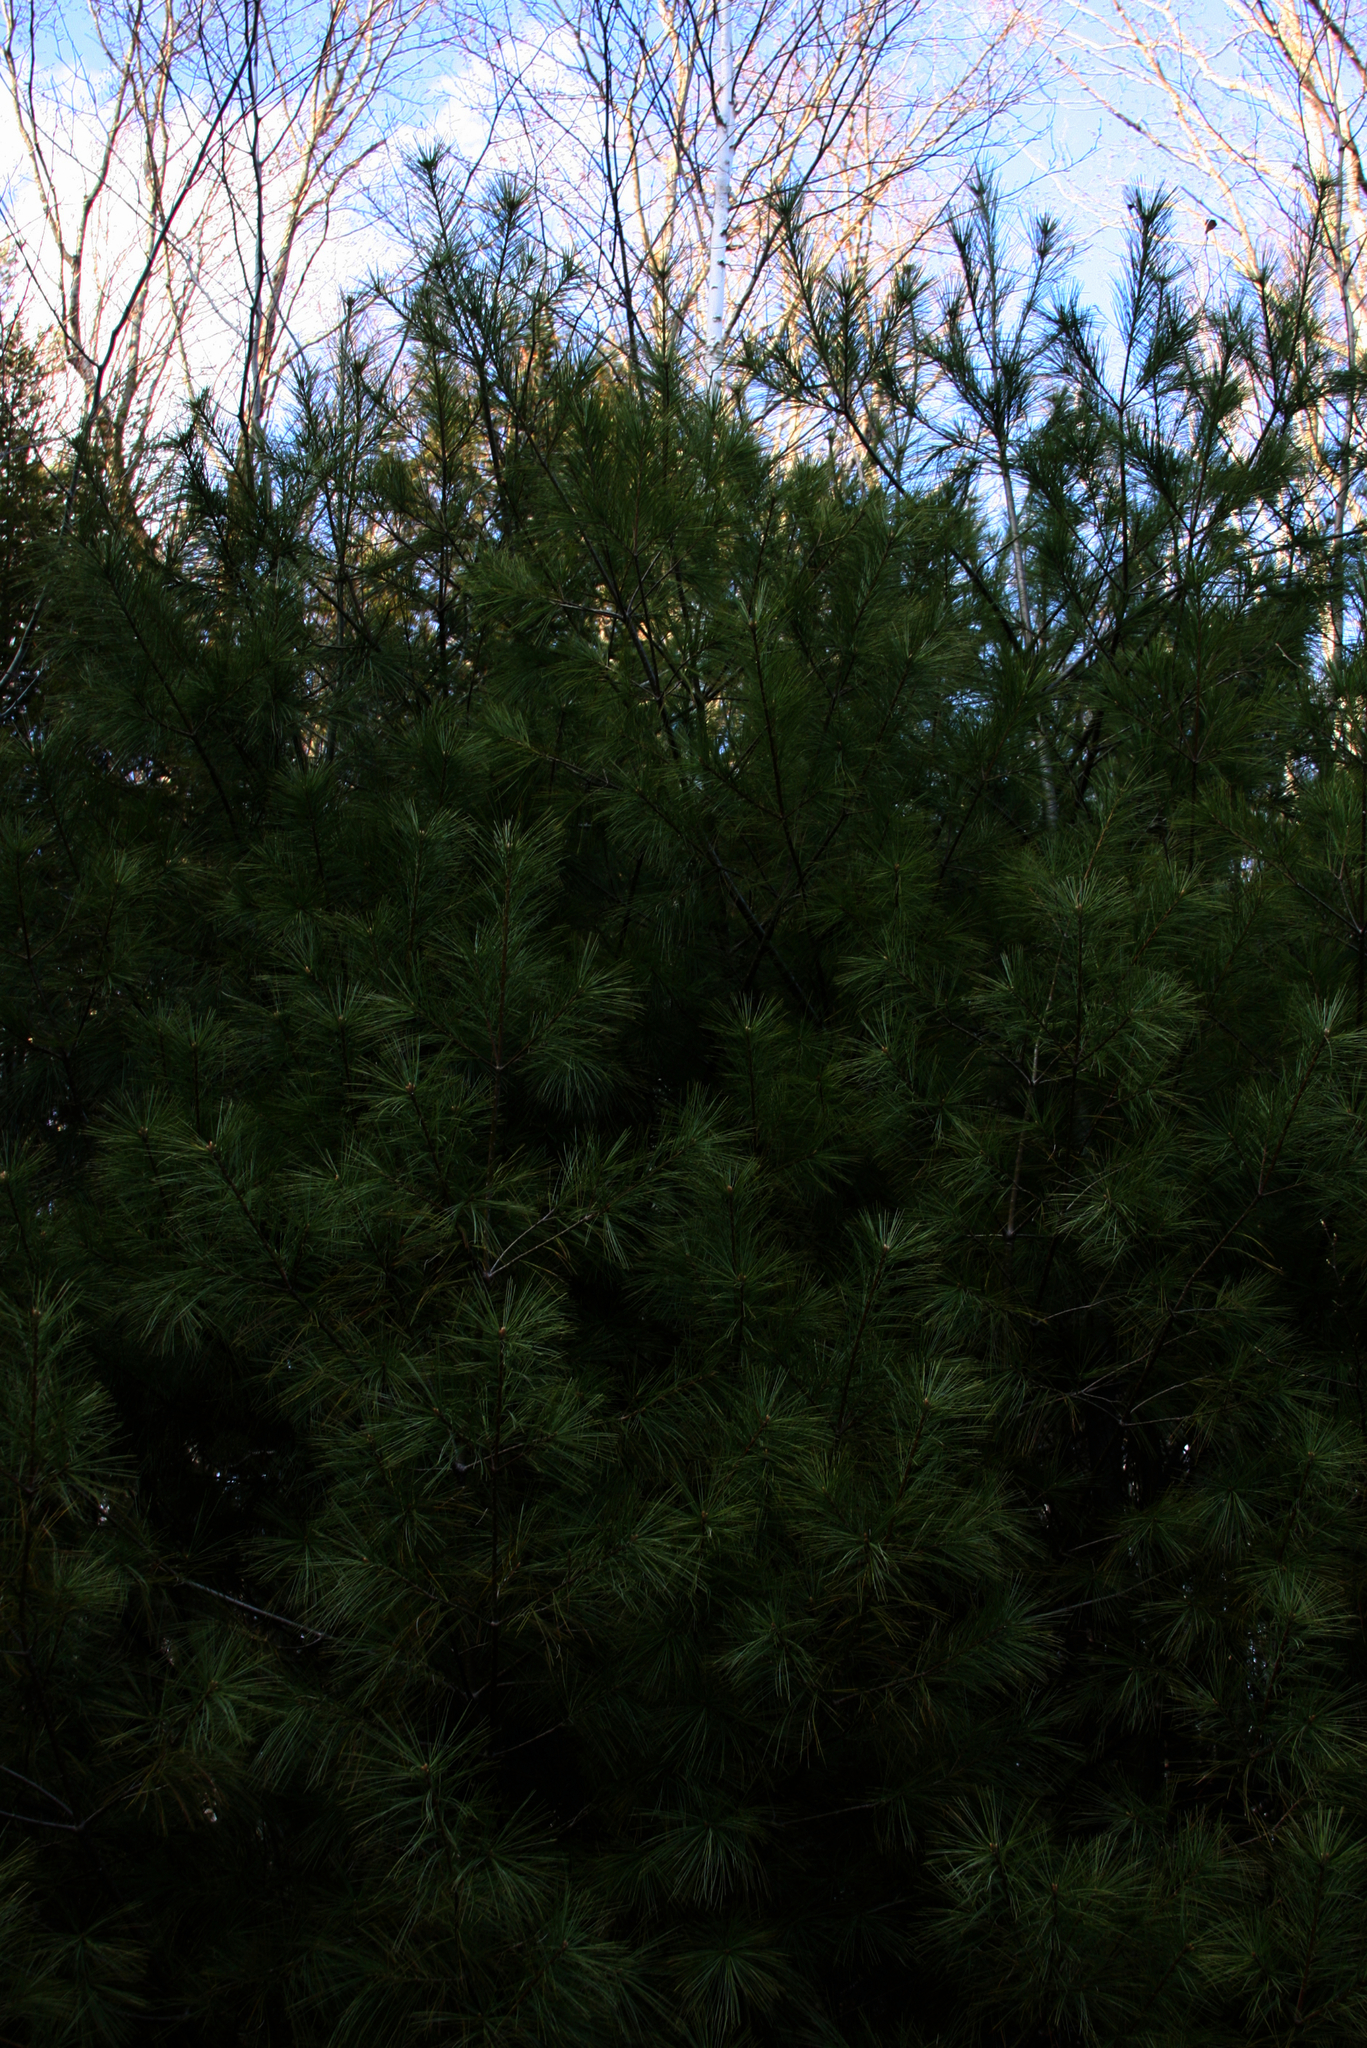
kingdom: Plantae
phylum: Tracheophyta
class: Pinopsida
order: Pinales
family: Pinaceae
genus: Pinus
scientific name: Pinus strobus
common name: Weymouth pine
